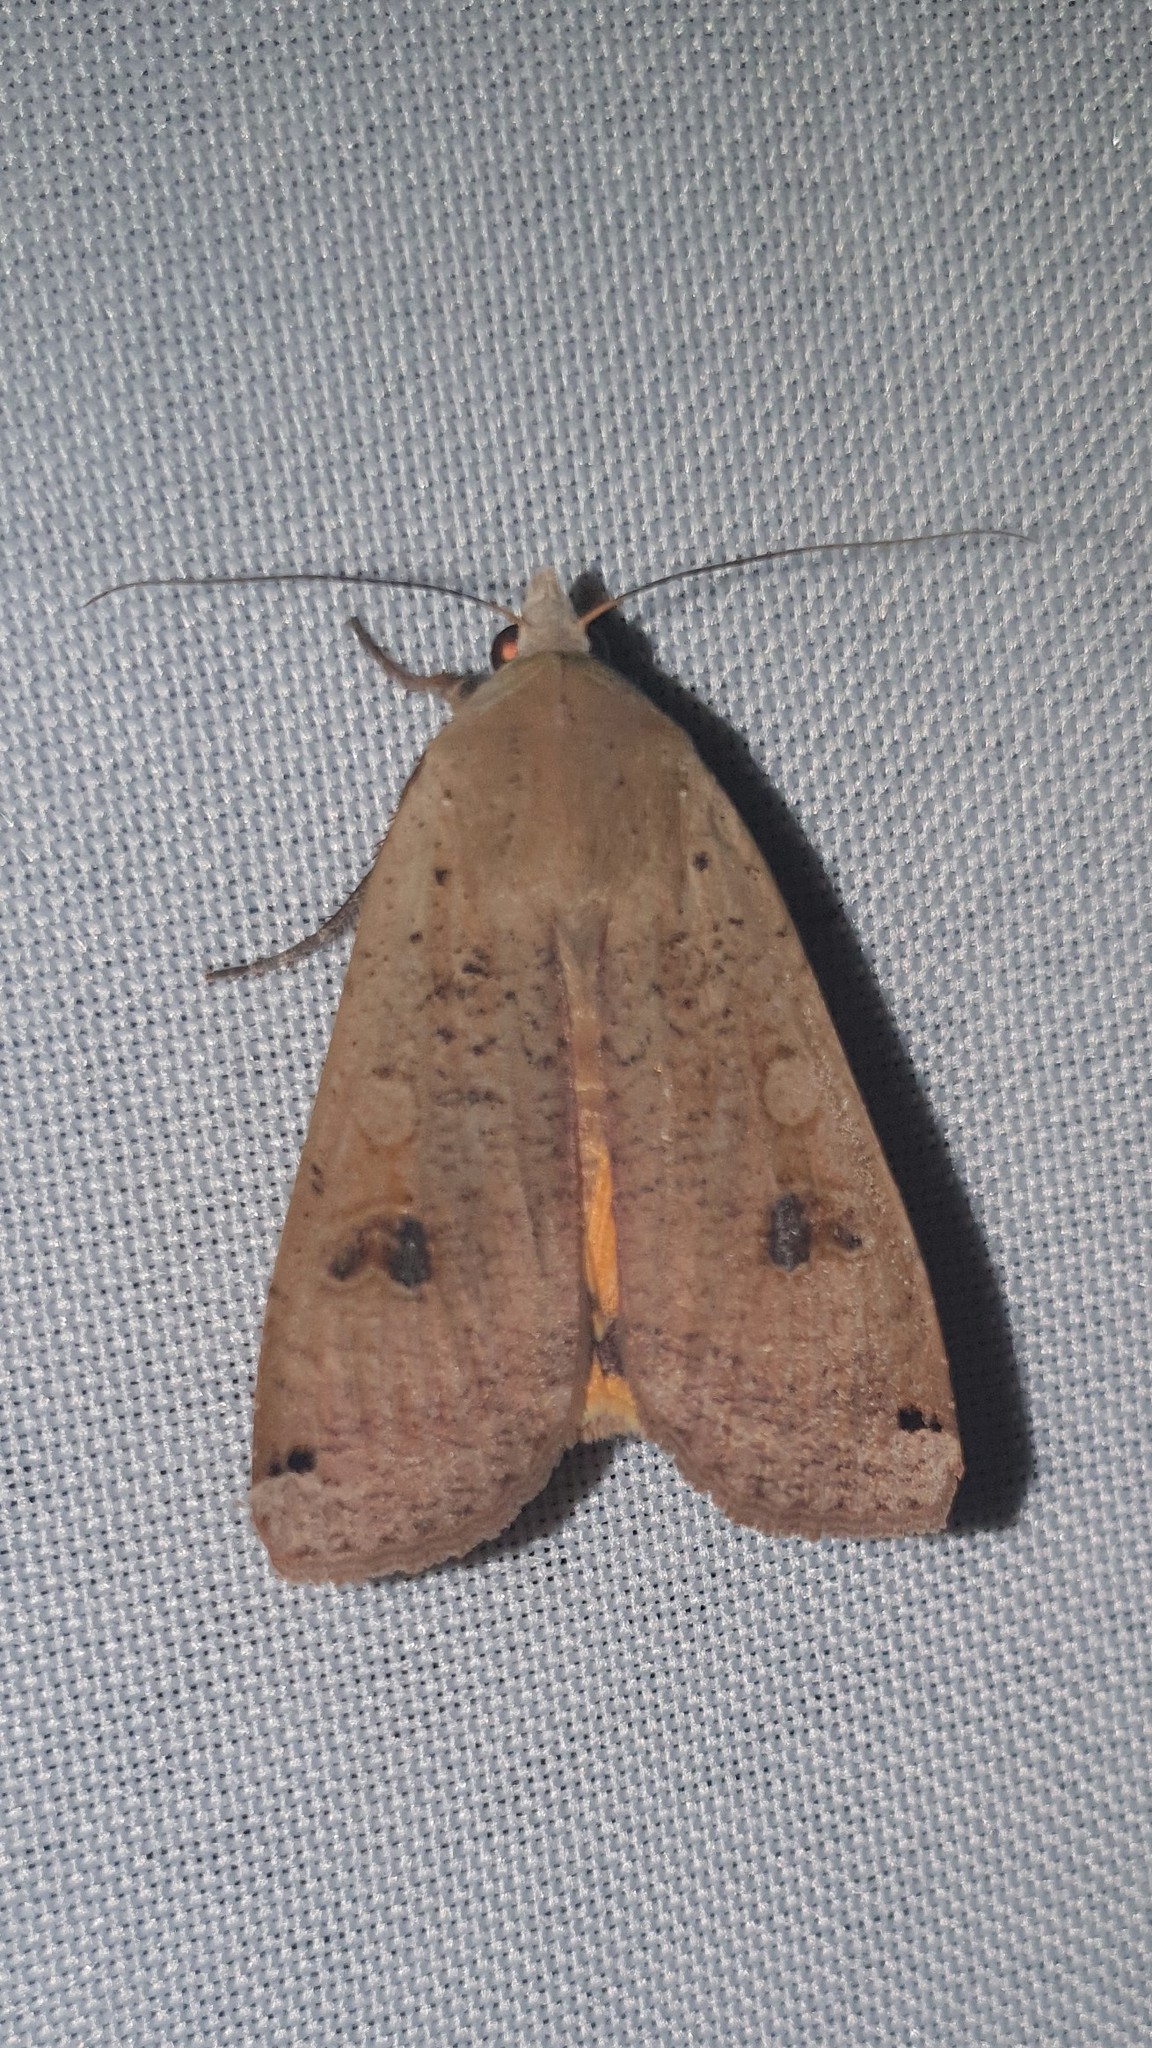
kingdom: Animalia
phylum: Arthropoda
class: Insecta
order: Lepidoptera
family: Noctuidae
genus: Noctua
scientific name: Noctua pronuba
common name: Large yellow underwing
